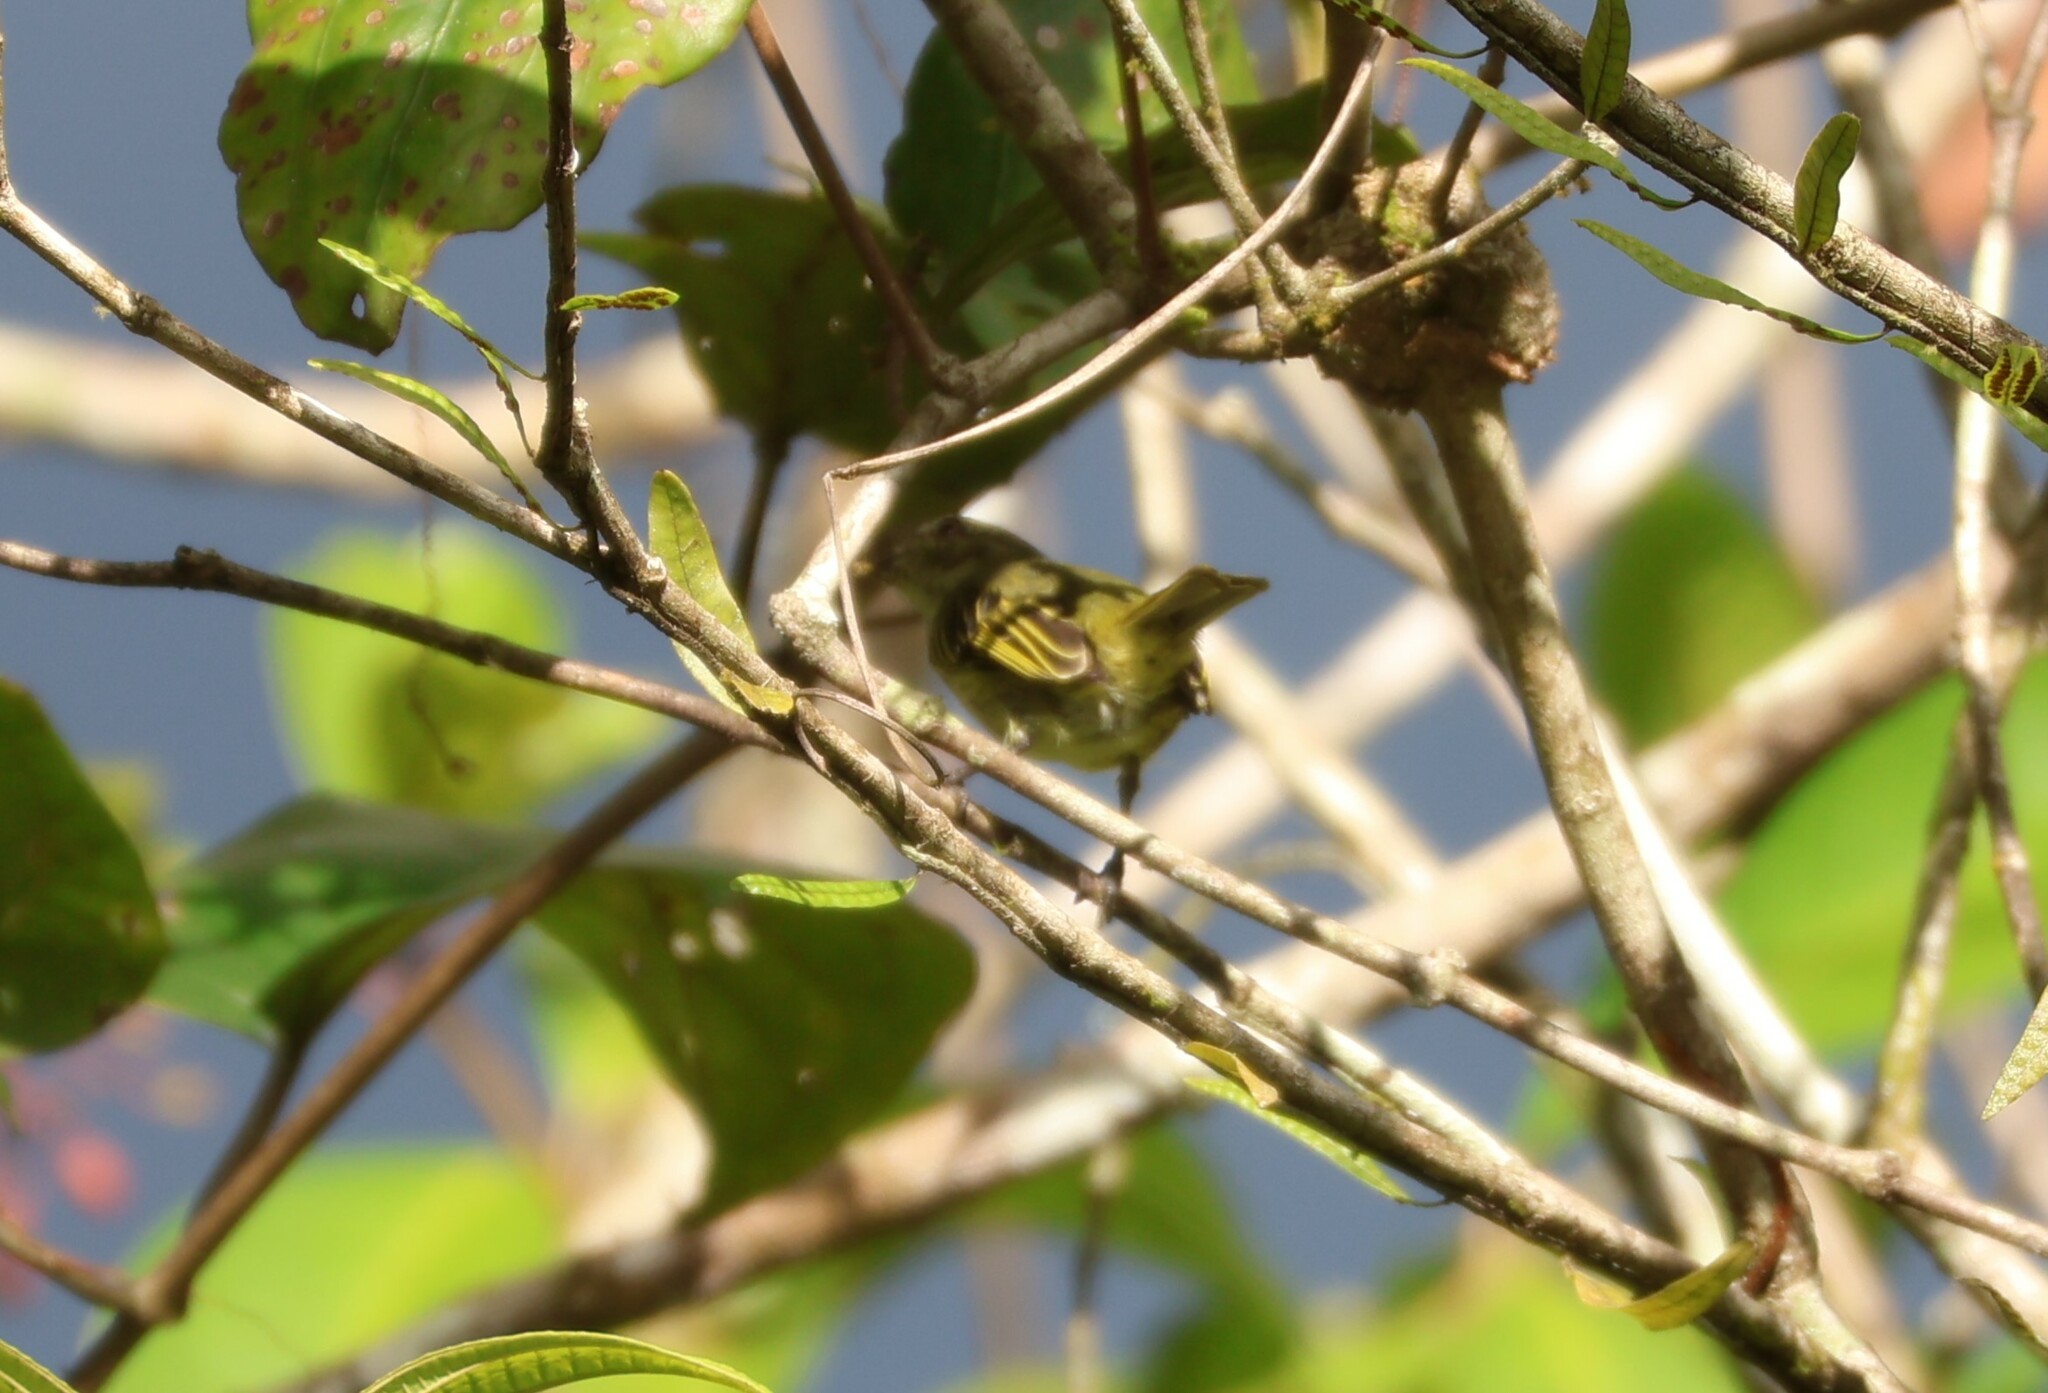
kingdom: Animalia
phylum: Chordata
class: Aves
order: Passeriformes
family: Tyrannidae
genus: Zimmerius
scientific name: Zimmerius vilissimus
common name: Paltry tyrannulet
